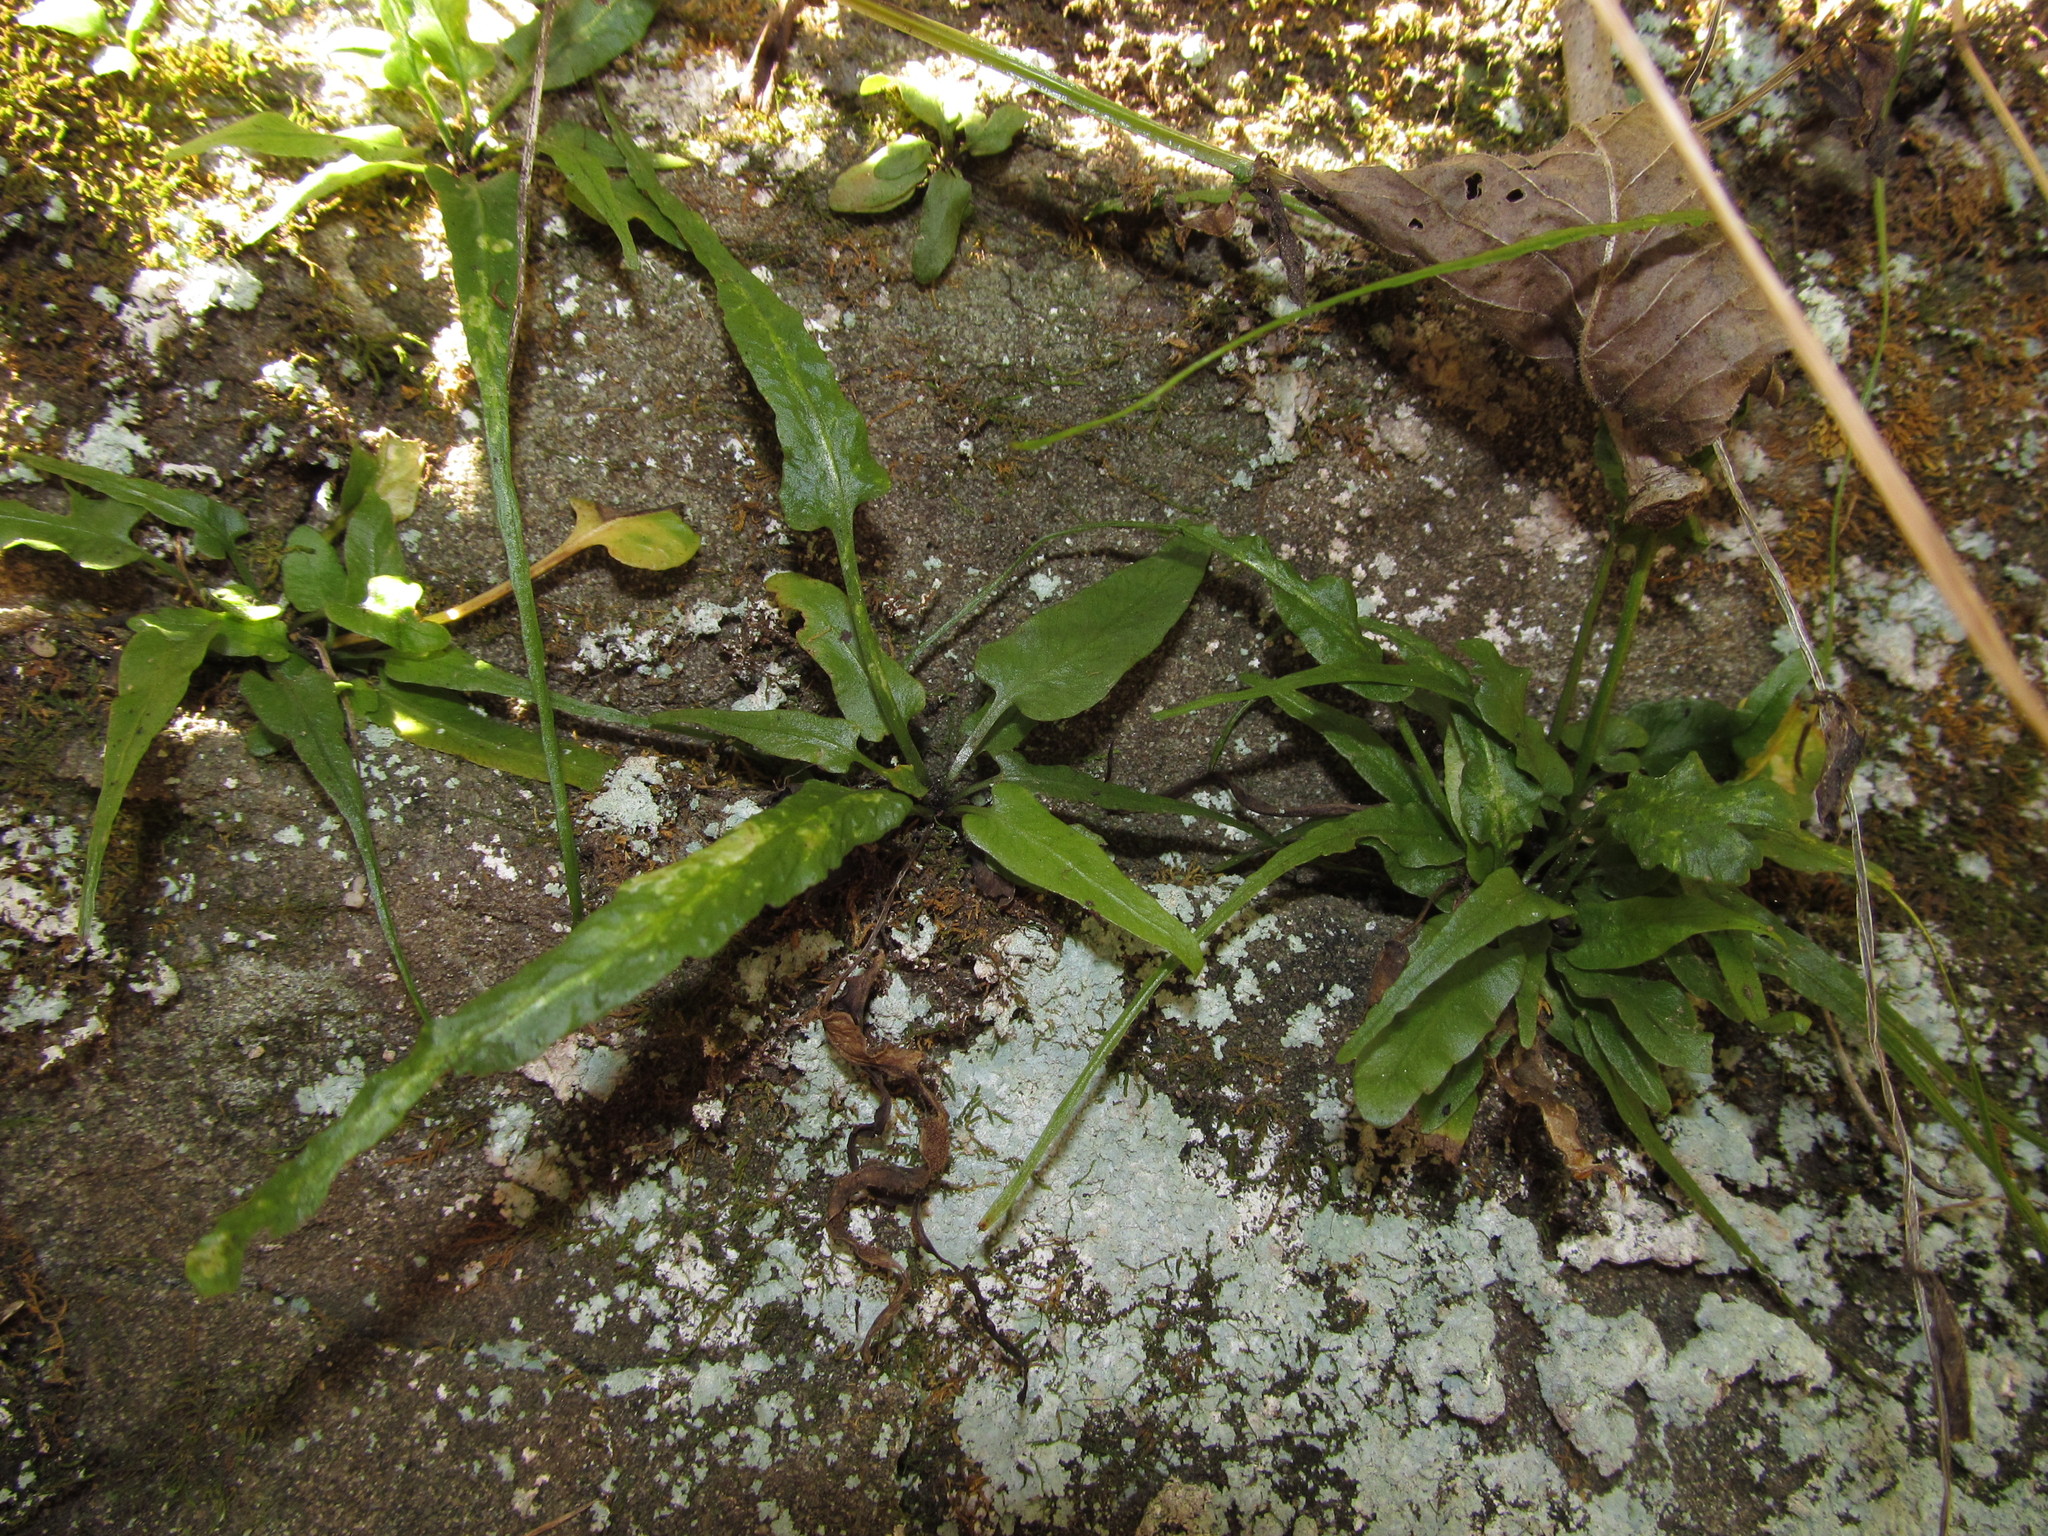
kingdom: Plantae
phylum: Tracheophyta
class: Polypodiopsida
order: Polypodiales
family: Aspleniaceae
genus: Asplenium
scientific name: Asplenium rhizophyllum
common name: Walking fern
